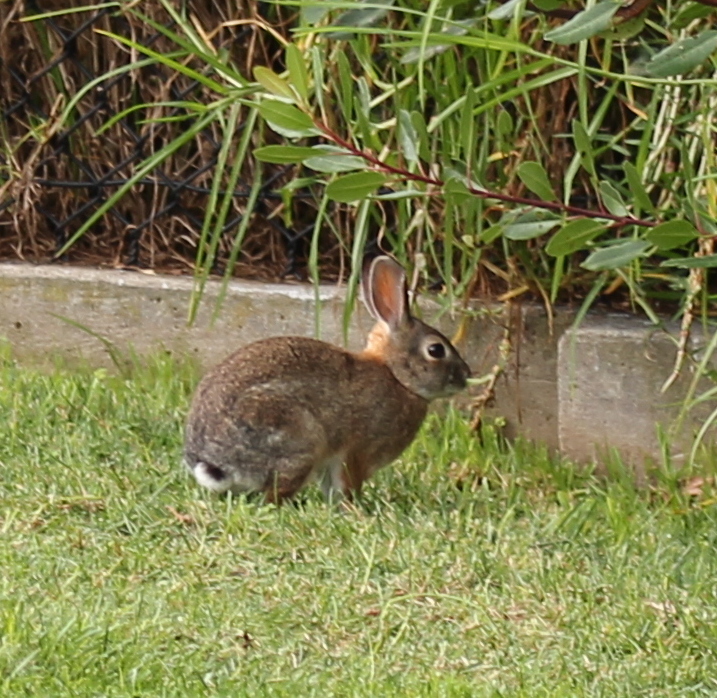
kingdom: Animalia
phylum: Chordata
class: Mammalia
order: Lagomorpha
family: Leporidae
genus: Sylvilagus
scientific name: Sylvilagus audubonii
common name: Desert cottontail
